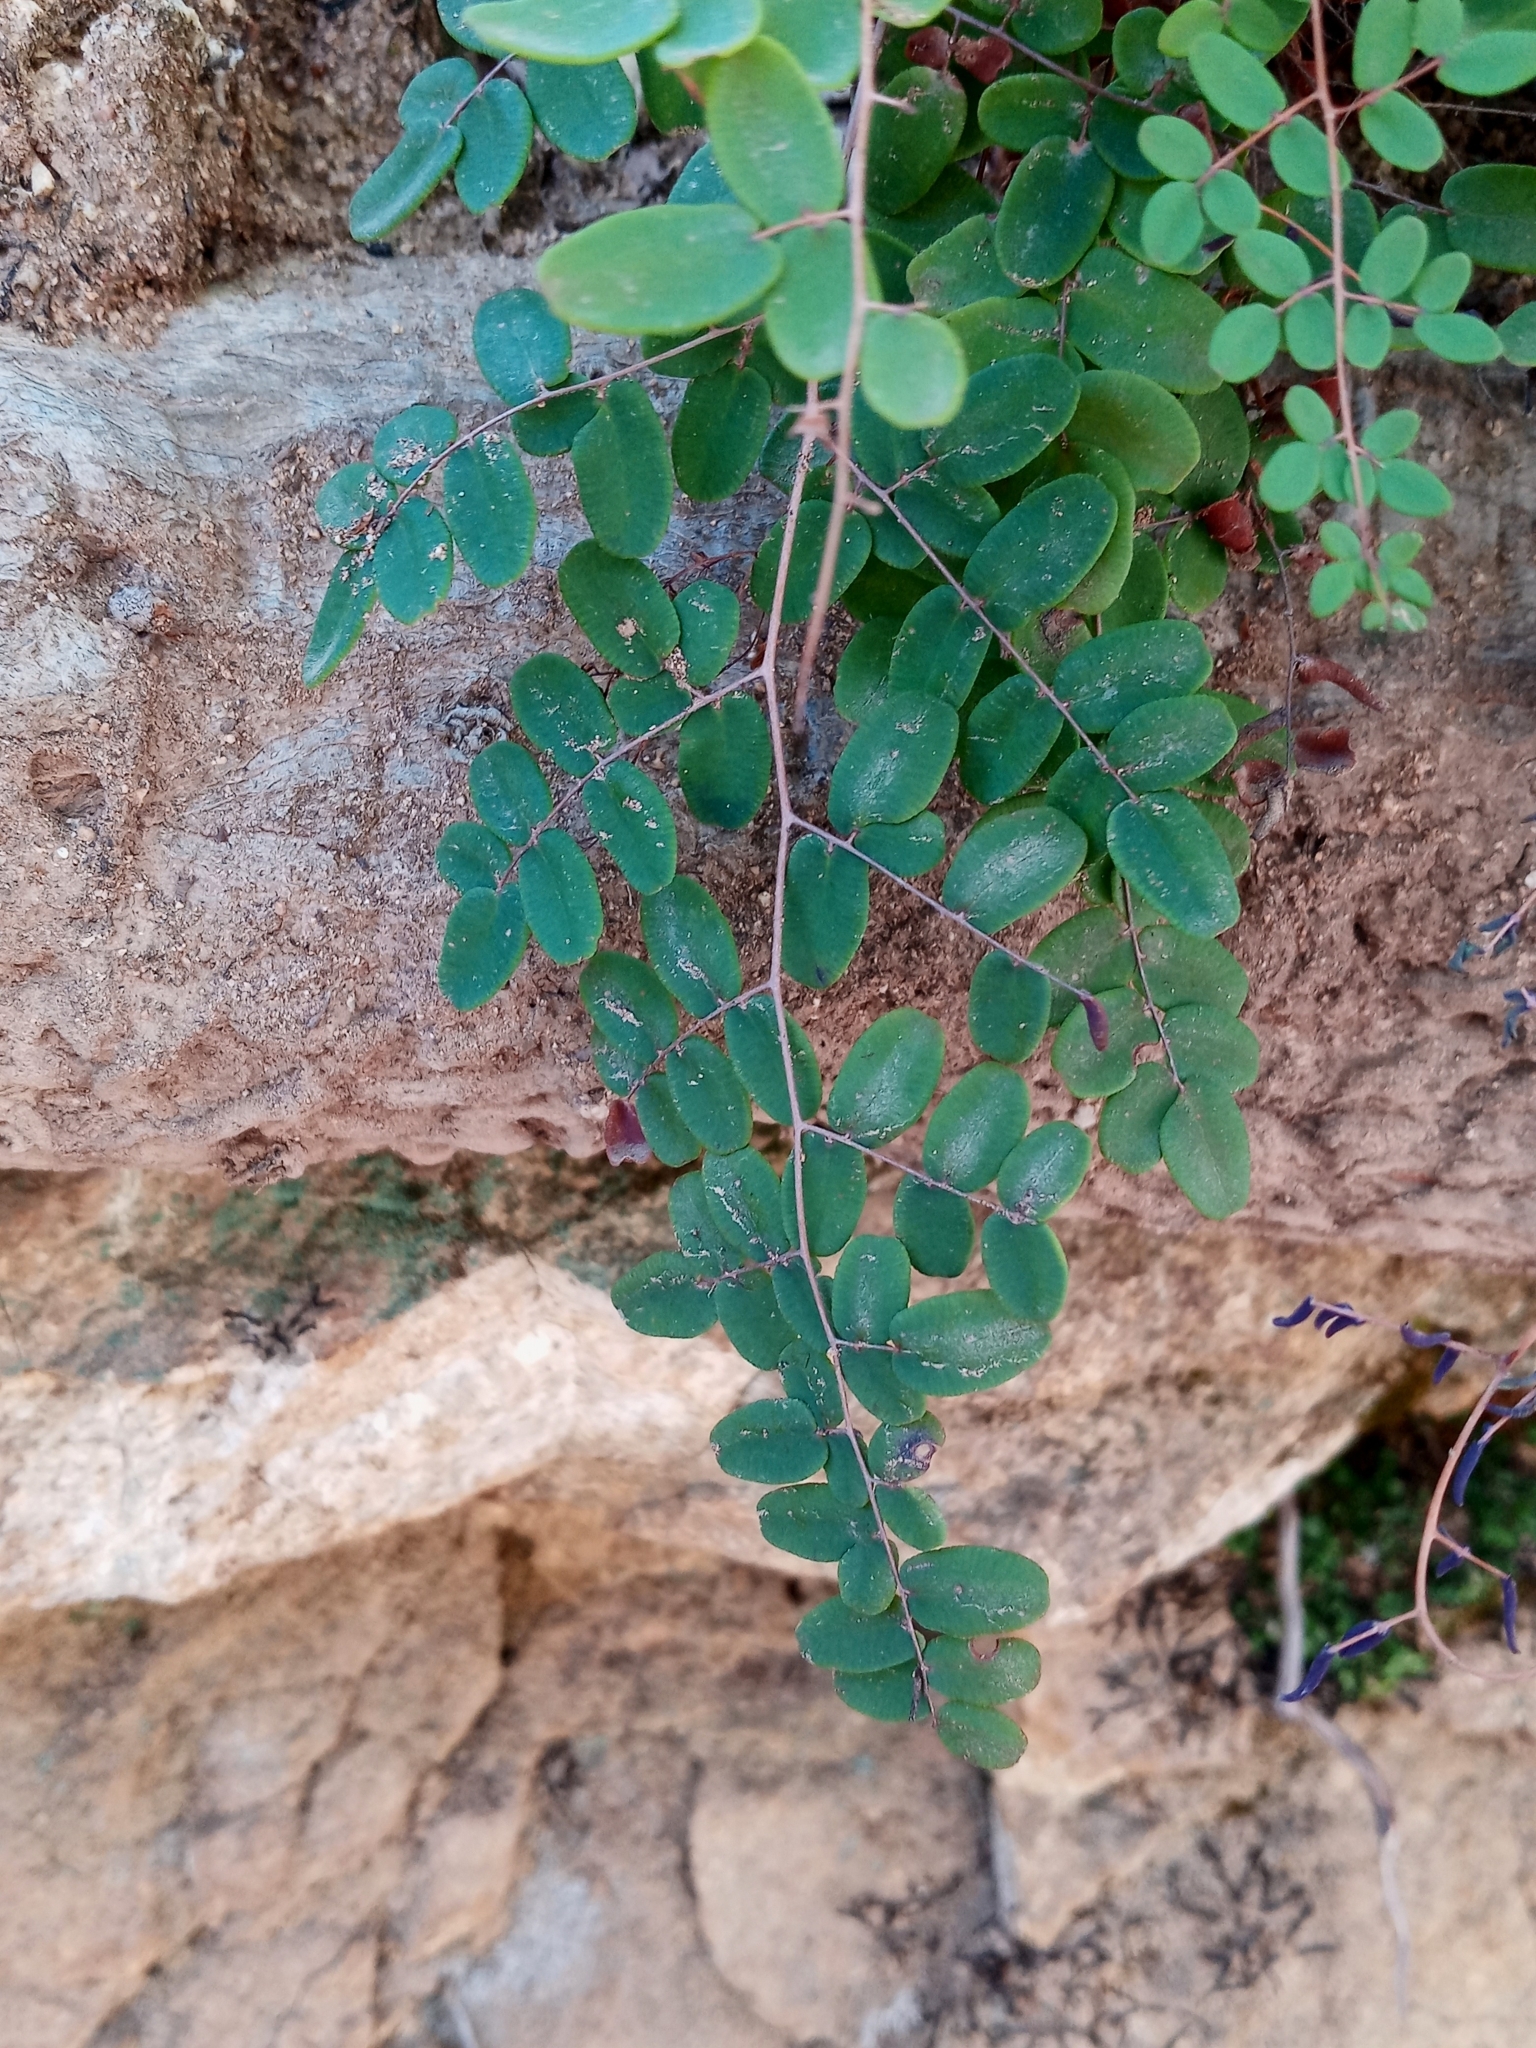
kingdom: Plantae
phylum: Tracheophyta
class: Polypodiopsida
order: Polypodiales
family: Pteridaceae
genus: Pellaea
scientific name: Pellaea andromedifolia
